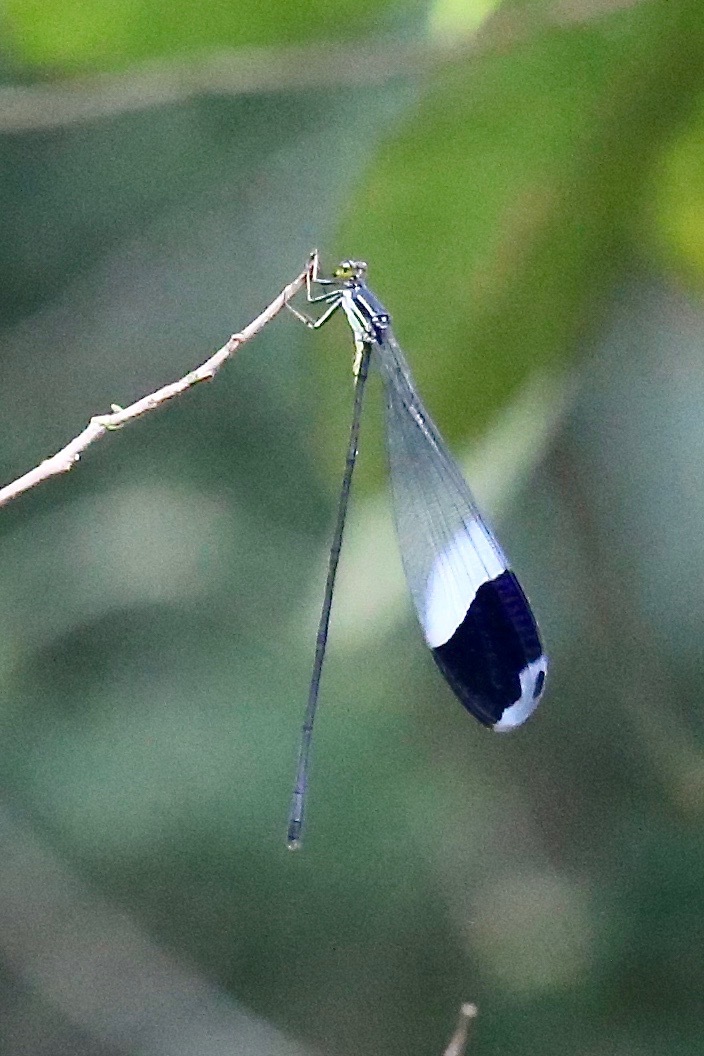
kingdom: Animalia
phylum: Arthropoda
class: Insecta
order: Odonata
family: Coenagrionidae
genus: Megaloprepus
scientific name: Megaloprepus caerulatus
